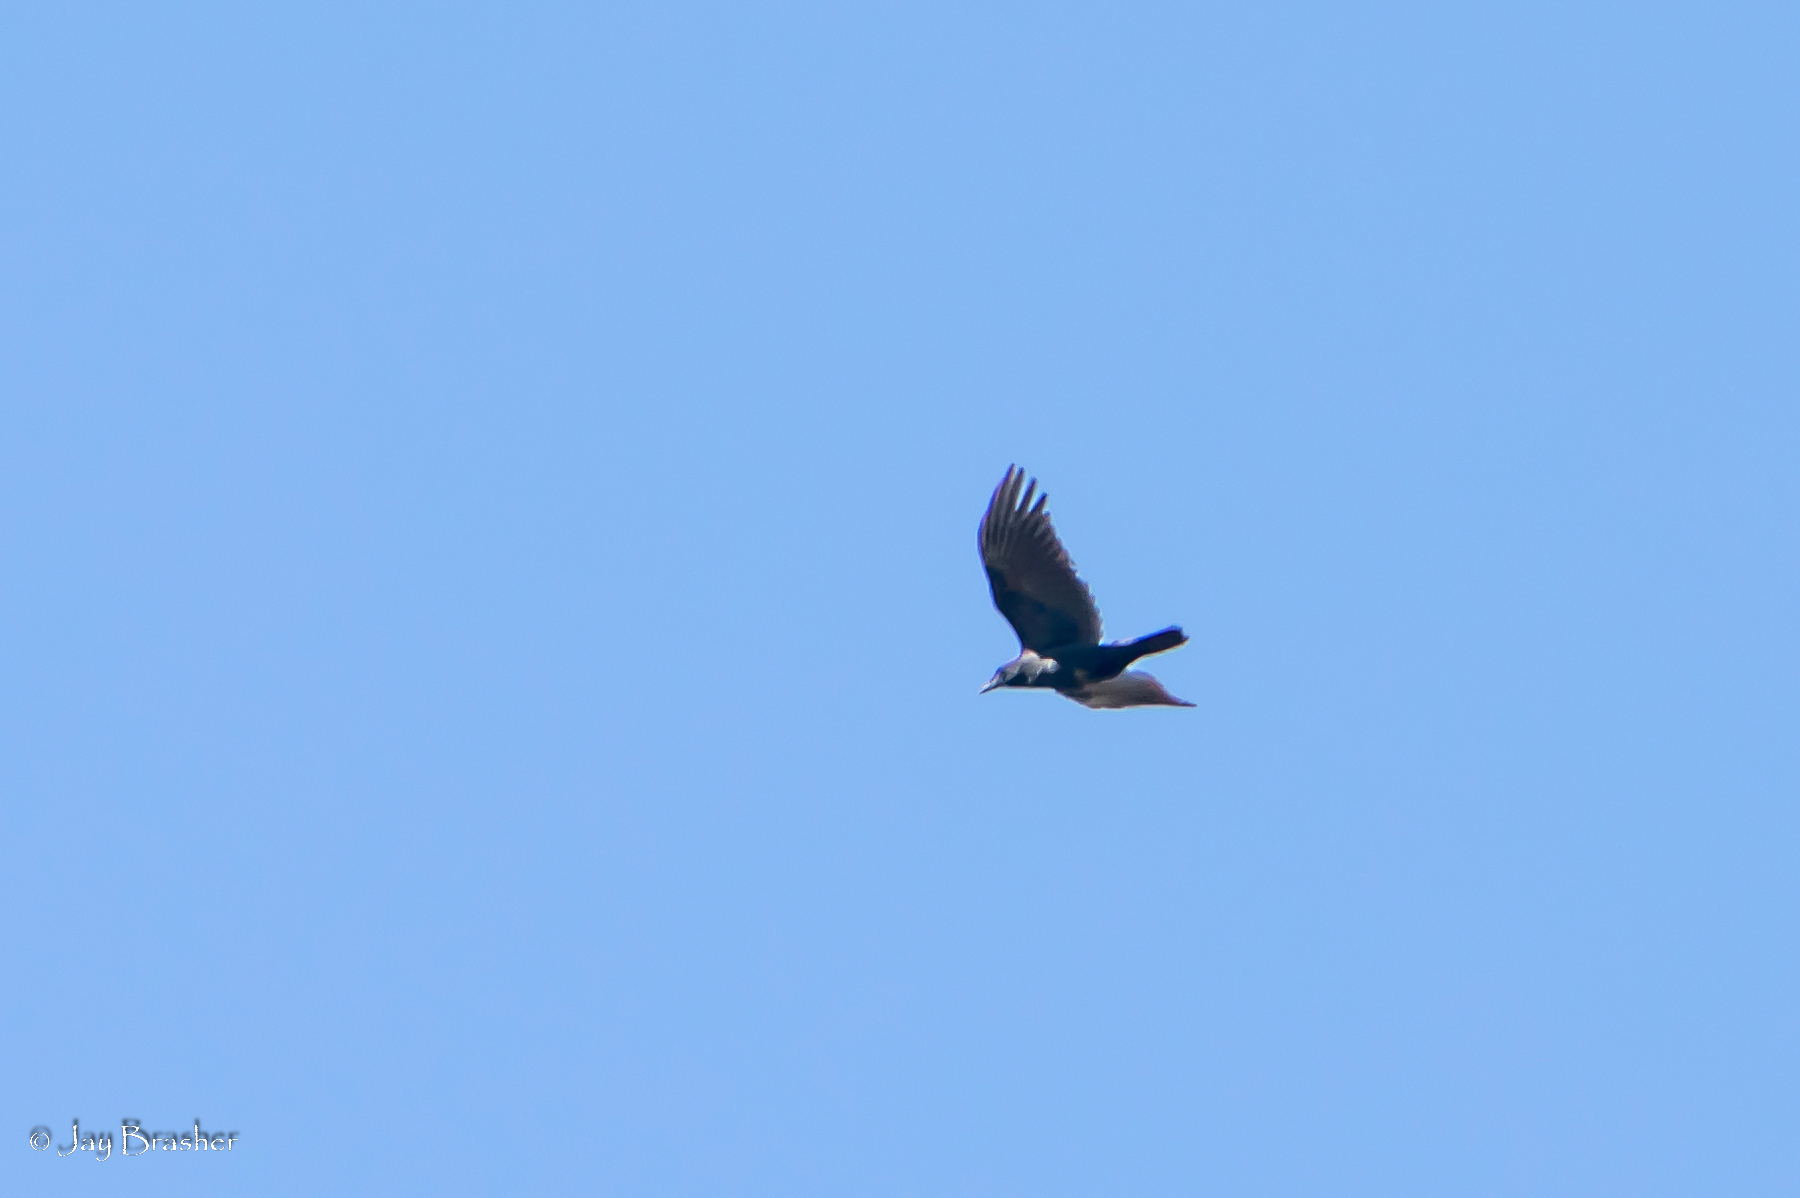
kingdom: Animalia
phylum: Chordata
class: Aves
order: Passeriformes
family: Corvidae
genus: Corvus
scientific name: Corvus brachyrhynchos
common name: American crow
